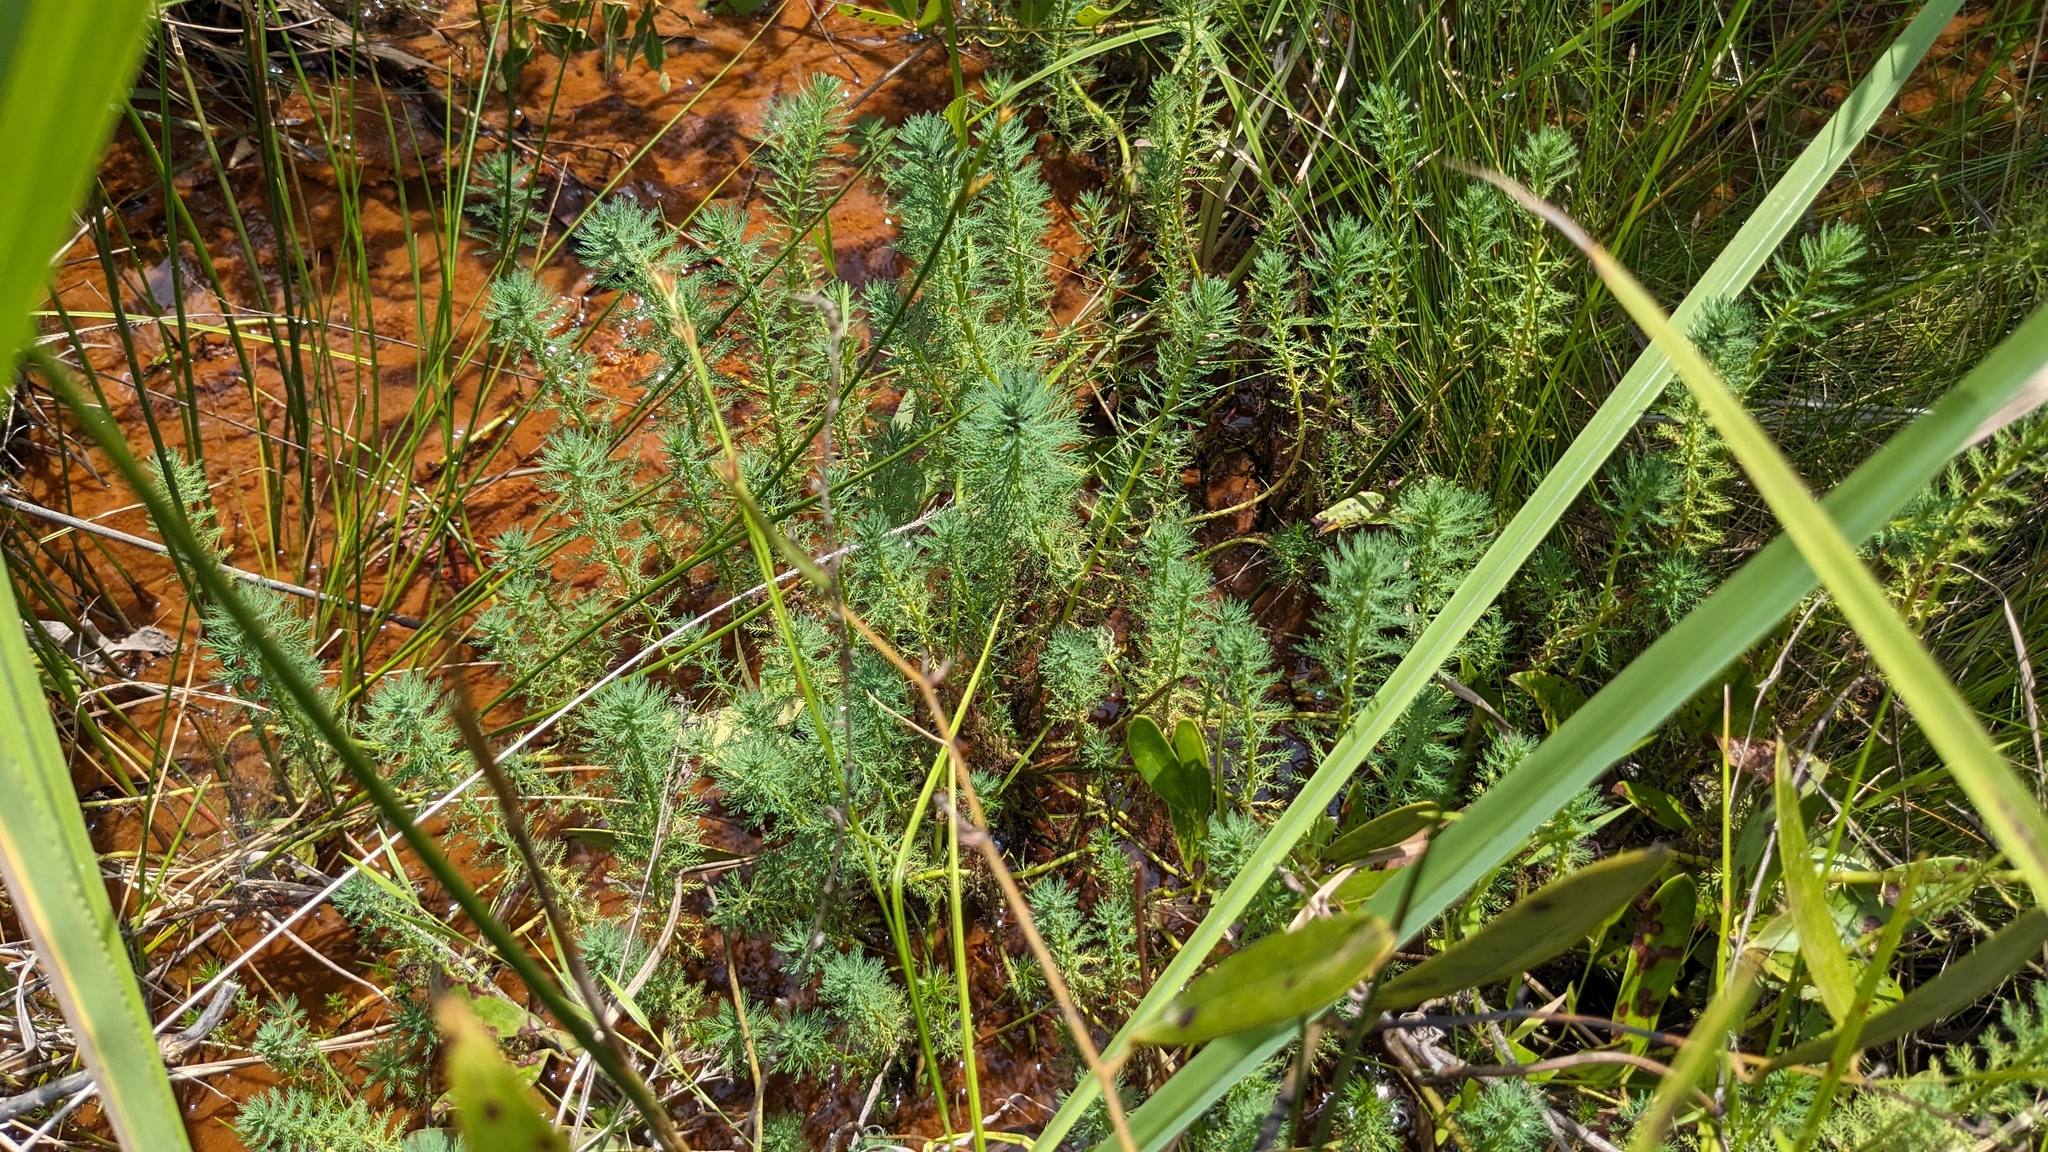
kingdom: Plantae
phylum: Tracheophyta
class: Magnoliopsida
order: Saxifragales
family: Haloragaceae
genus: Myriophyllum
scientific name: Myriophyllum aquaticum
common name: Parrot's feather
